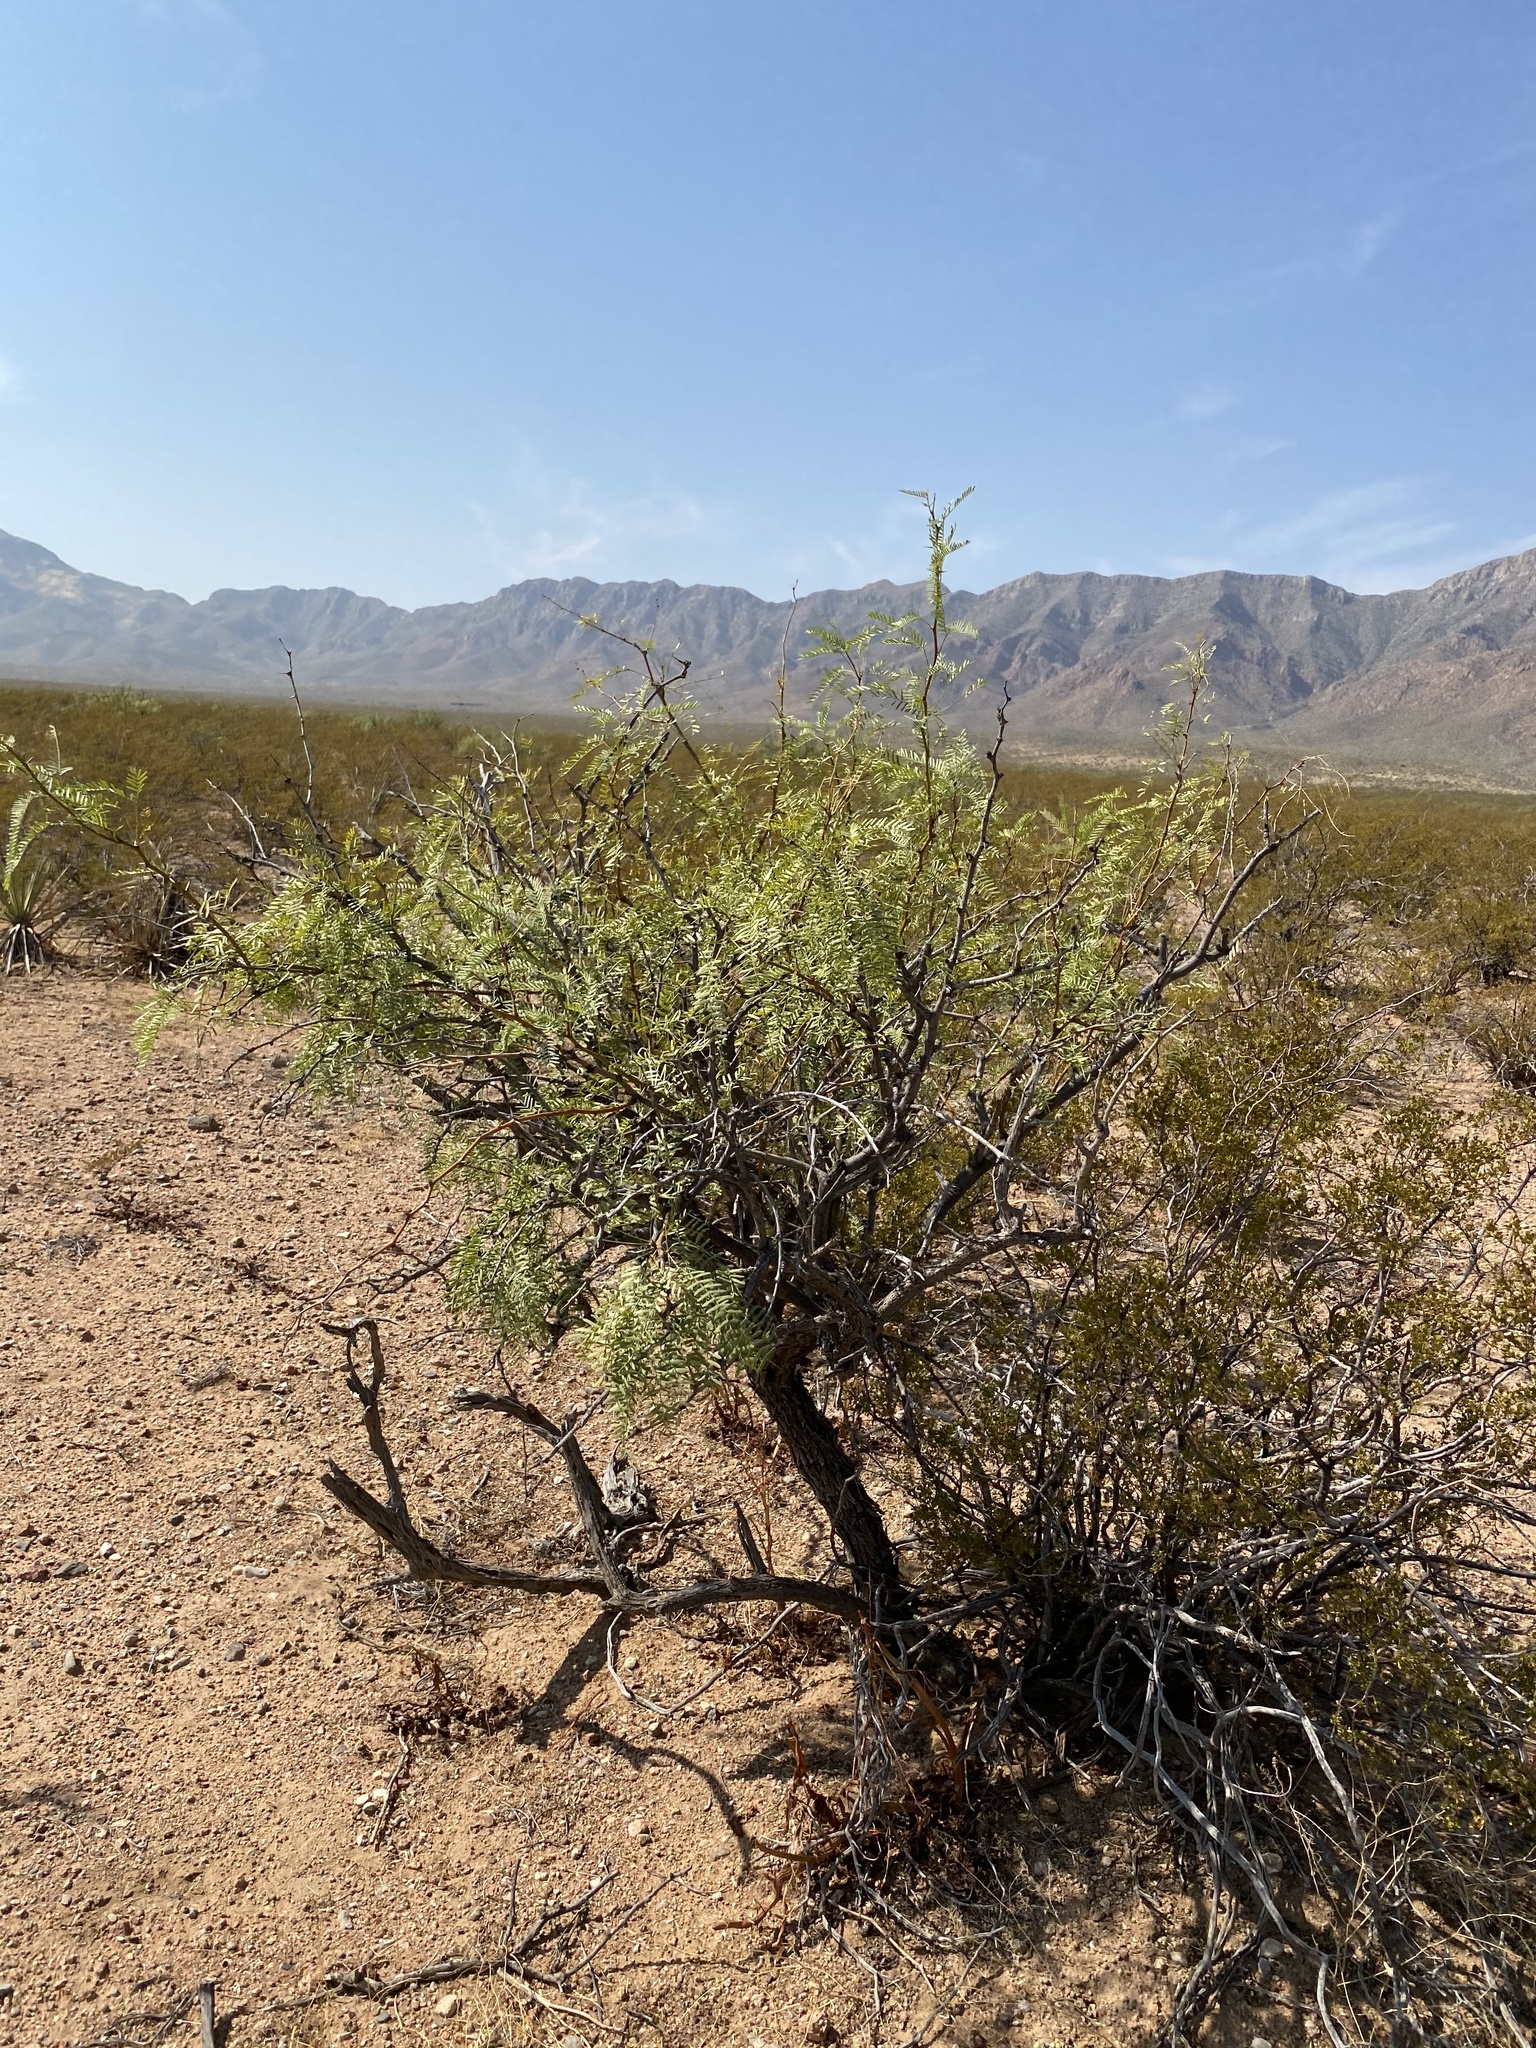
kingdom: Plantae
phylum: Tracheophyta
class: Magnoliopsida
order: Fabales
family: Fabaceae
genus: Prosopis
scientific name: Prosopis glandulosa
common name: Honey mesquite
